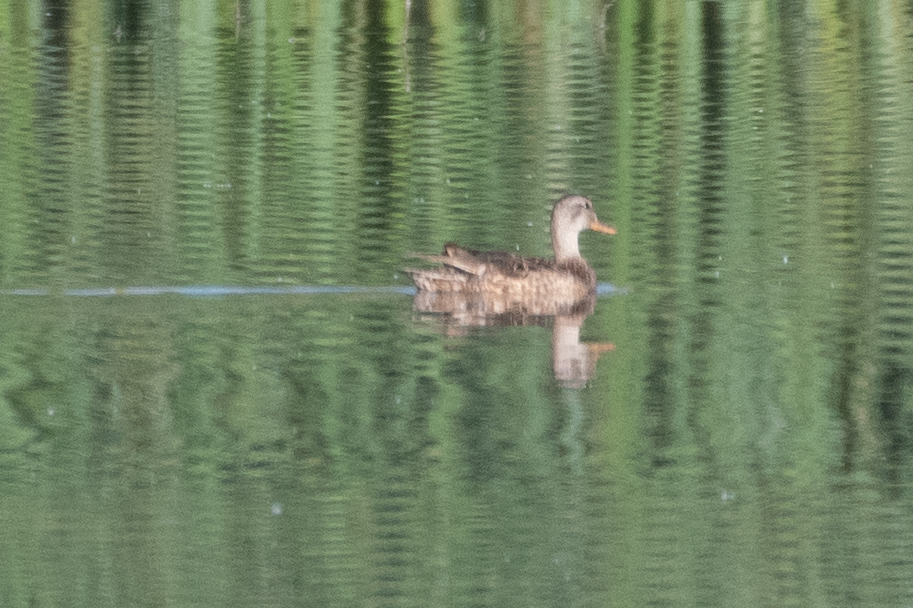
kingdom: Animalia
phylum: Chordata
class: Aves
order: Anseriformes
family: Anatidae
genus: Mareca
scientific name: Mareca strepera
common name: Gadwall
